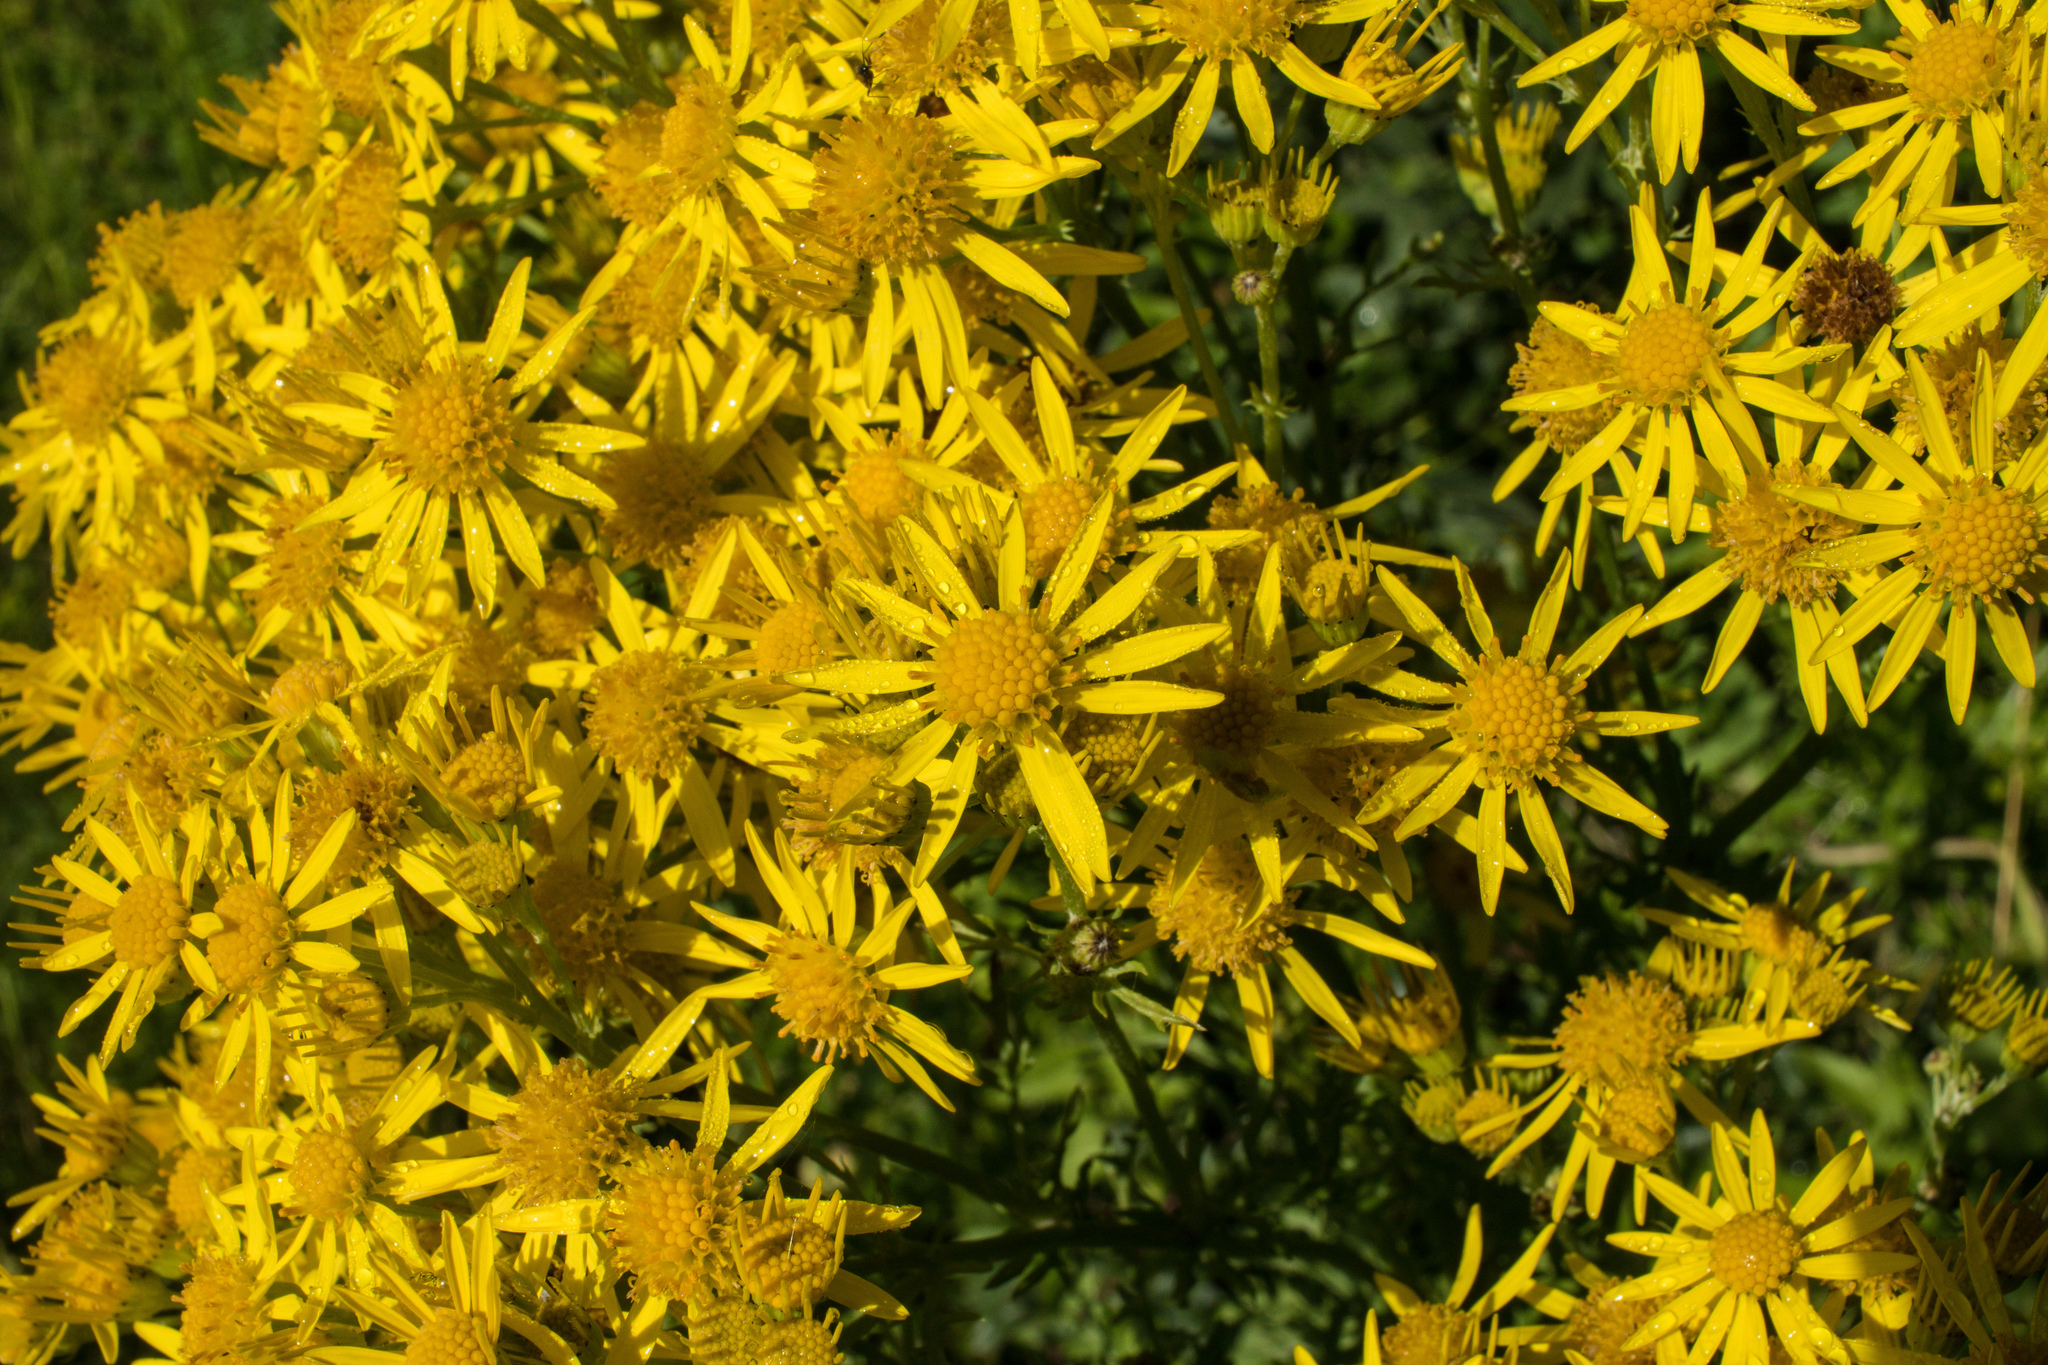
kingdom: Plantae
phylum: Tracheophyta
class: Magnoliopsida
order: Asterales
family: Asteraceae
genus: Jacobaea
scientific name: Jacobaea vulgaris
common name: Stinking willie
